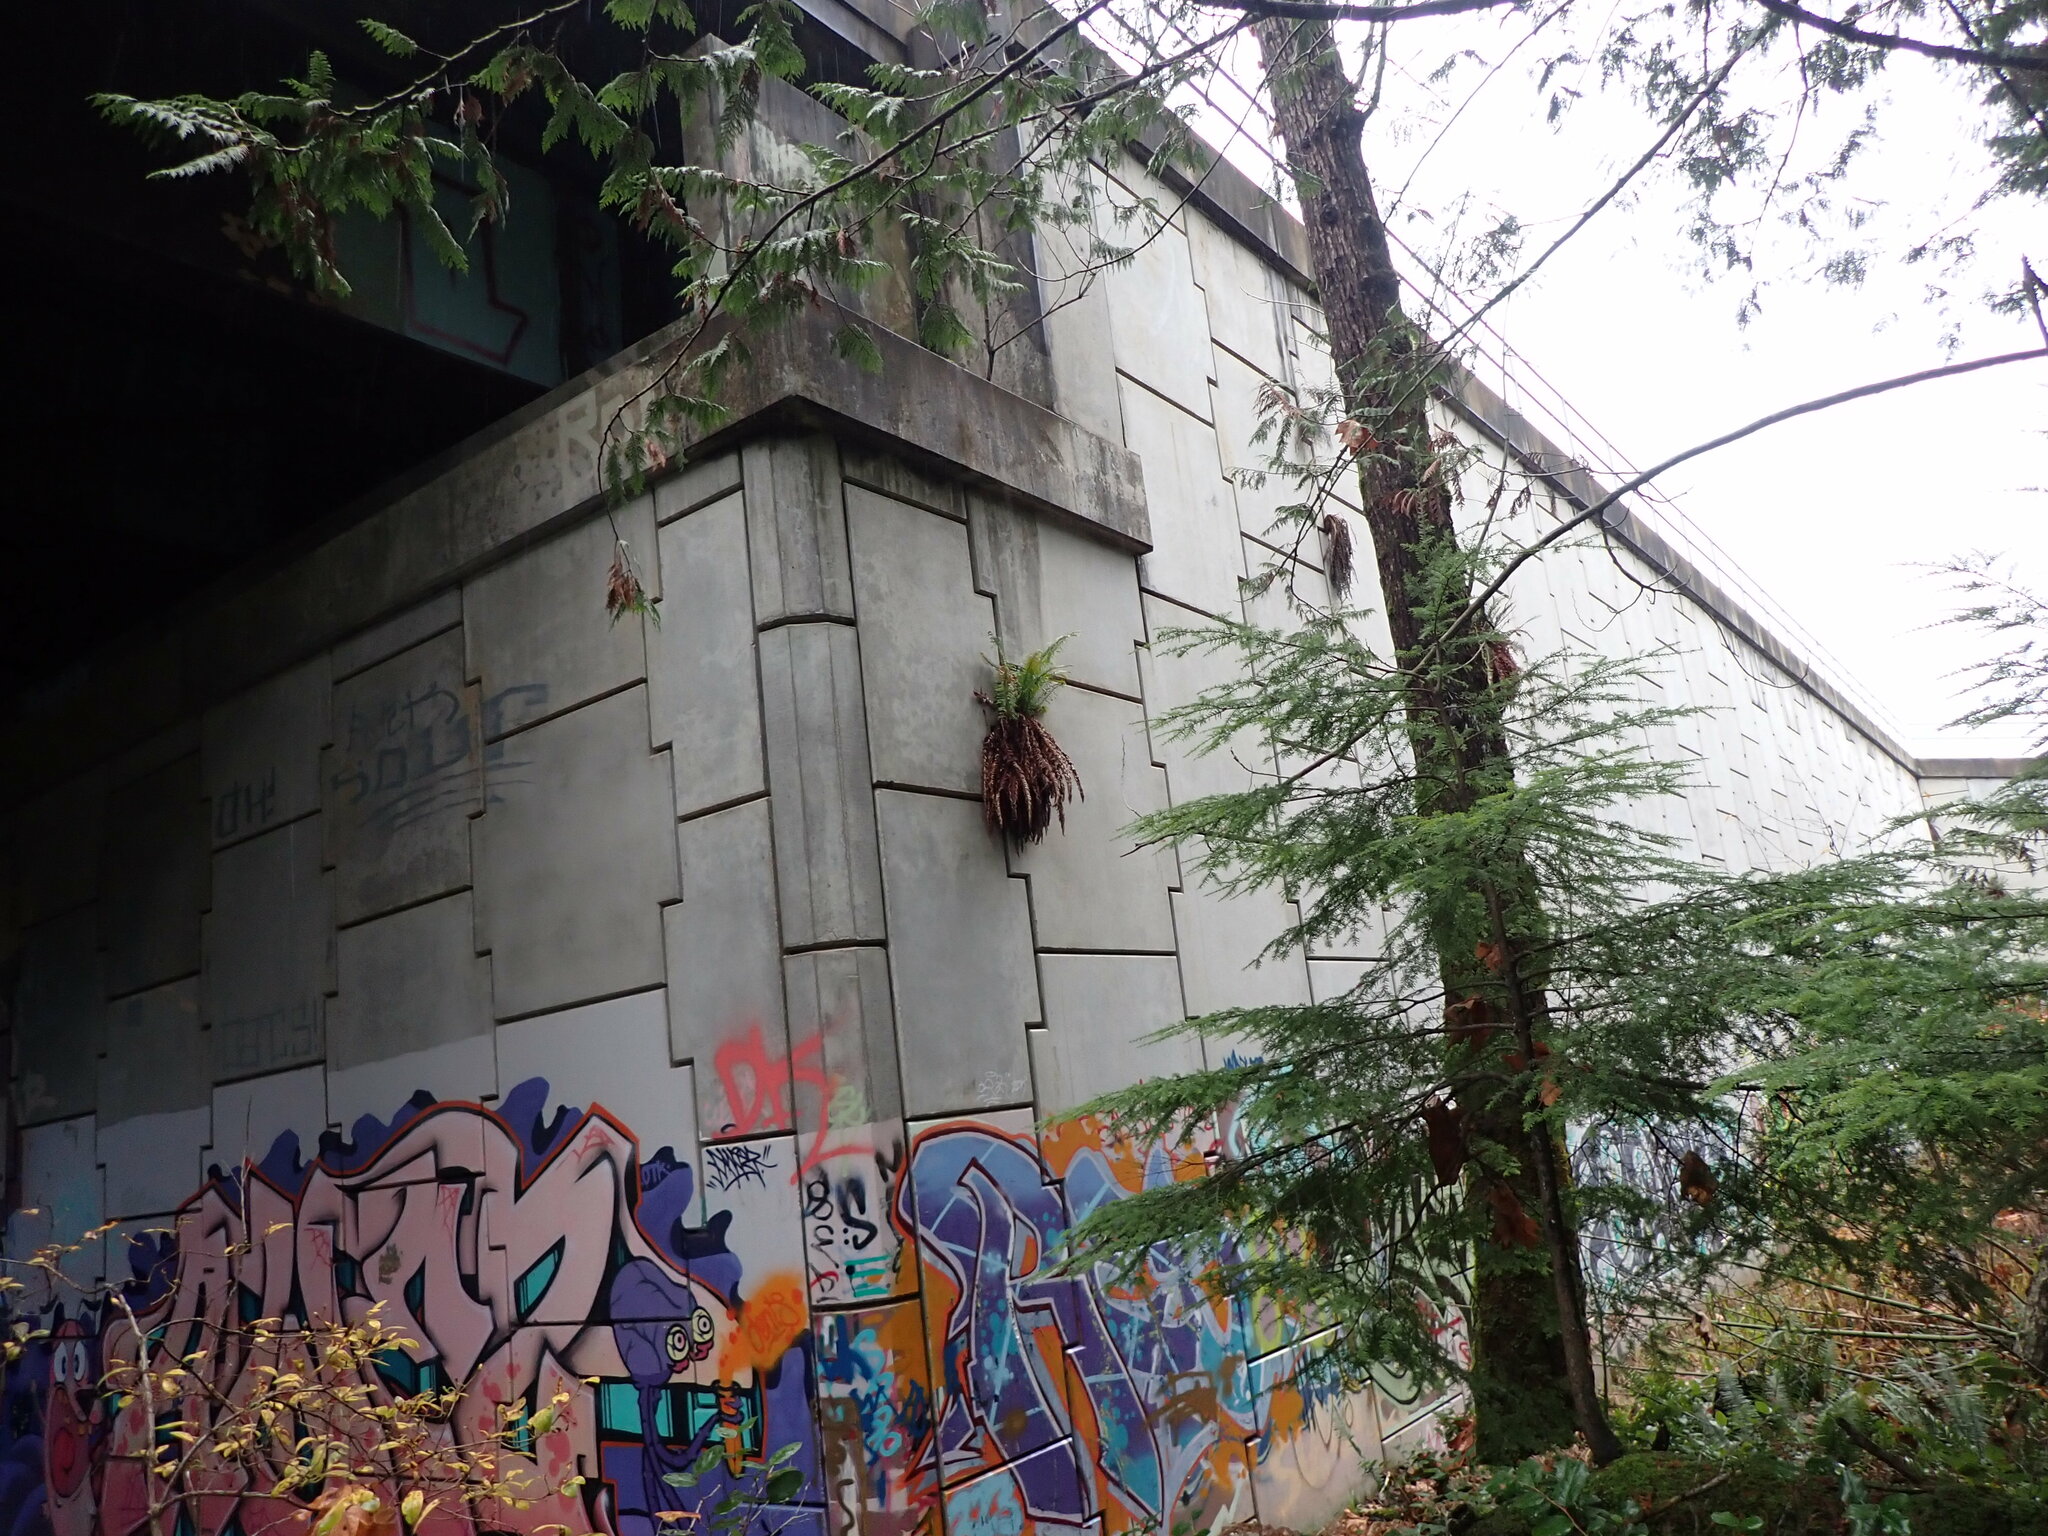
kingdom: Plantae
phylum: Tracheophyta
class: Polypodiopsida
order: Polypodiales
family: Dryopteridaceae
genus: Polystichum
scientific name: Polystichum munitum
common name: Western sword-fern
